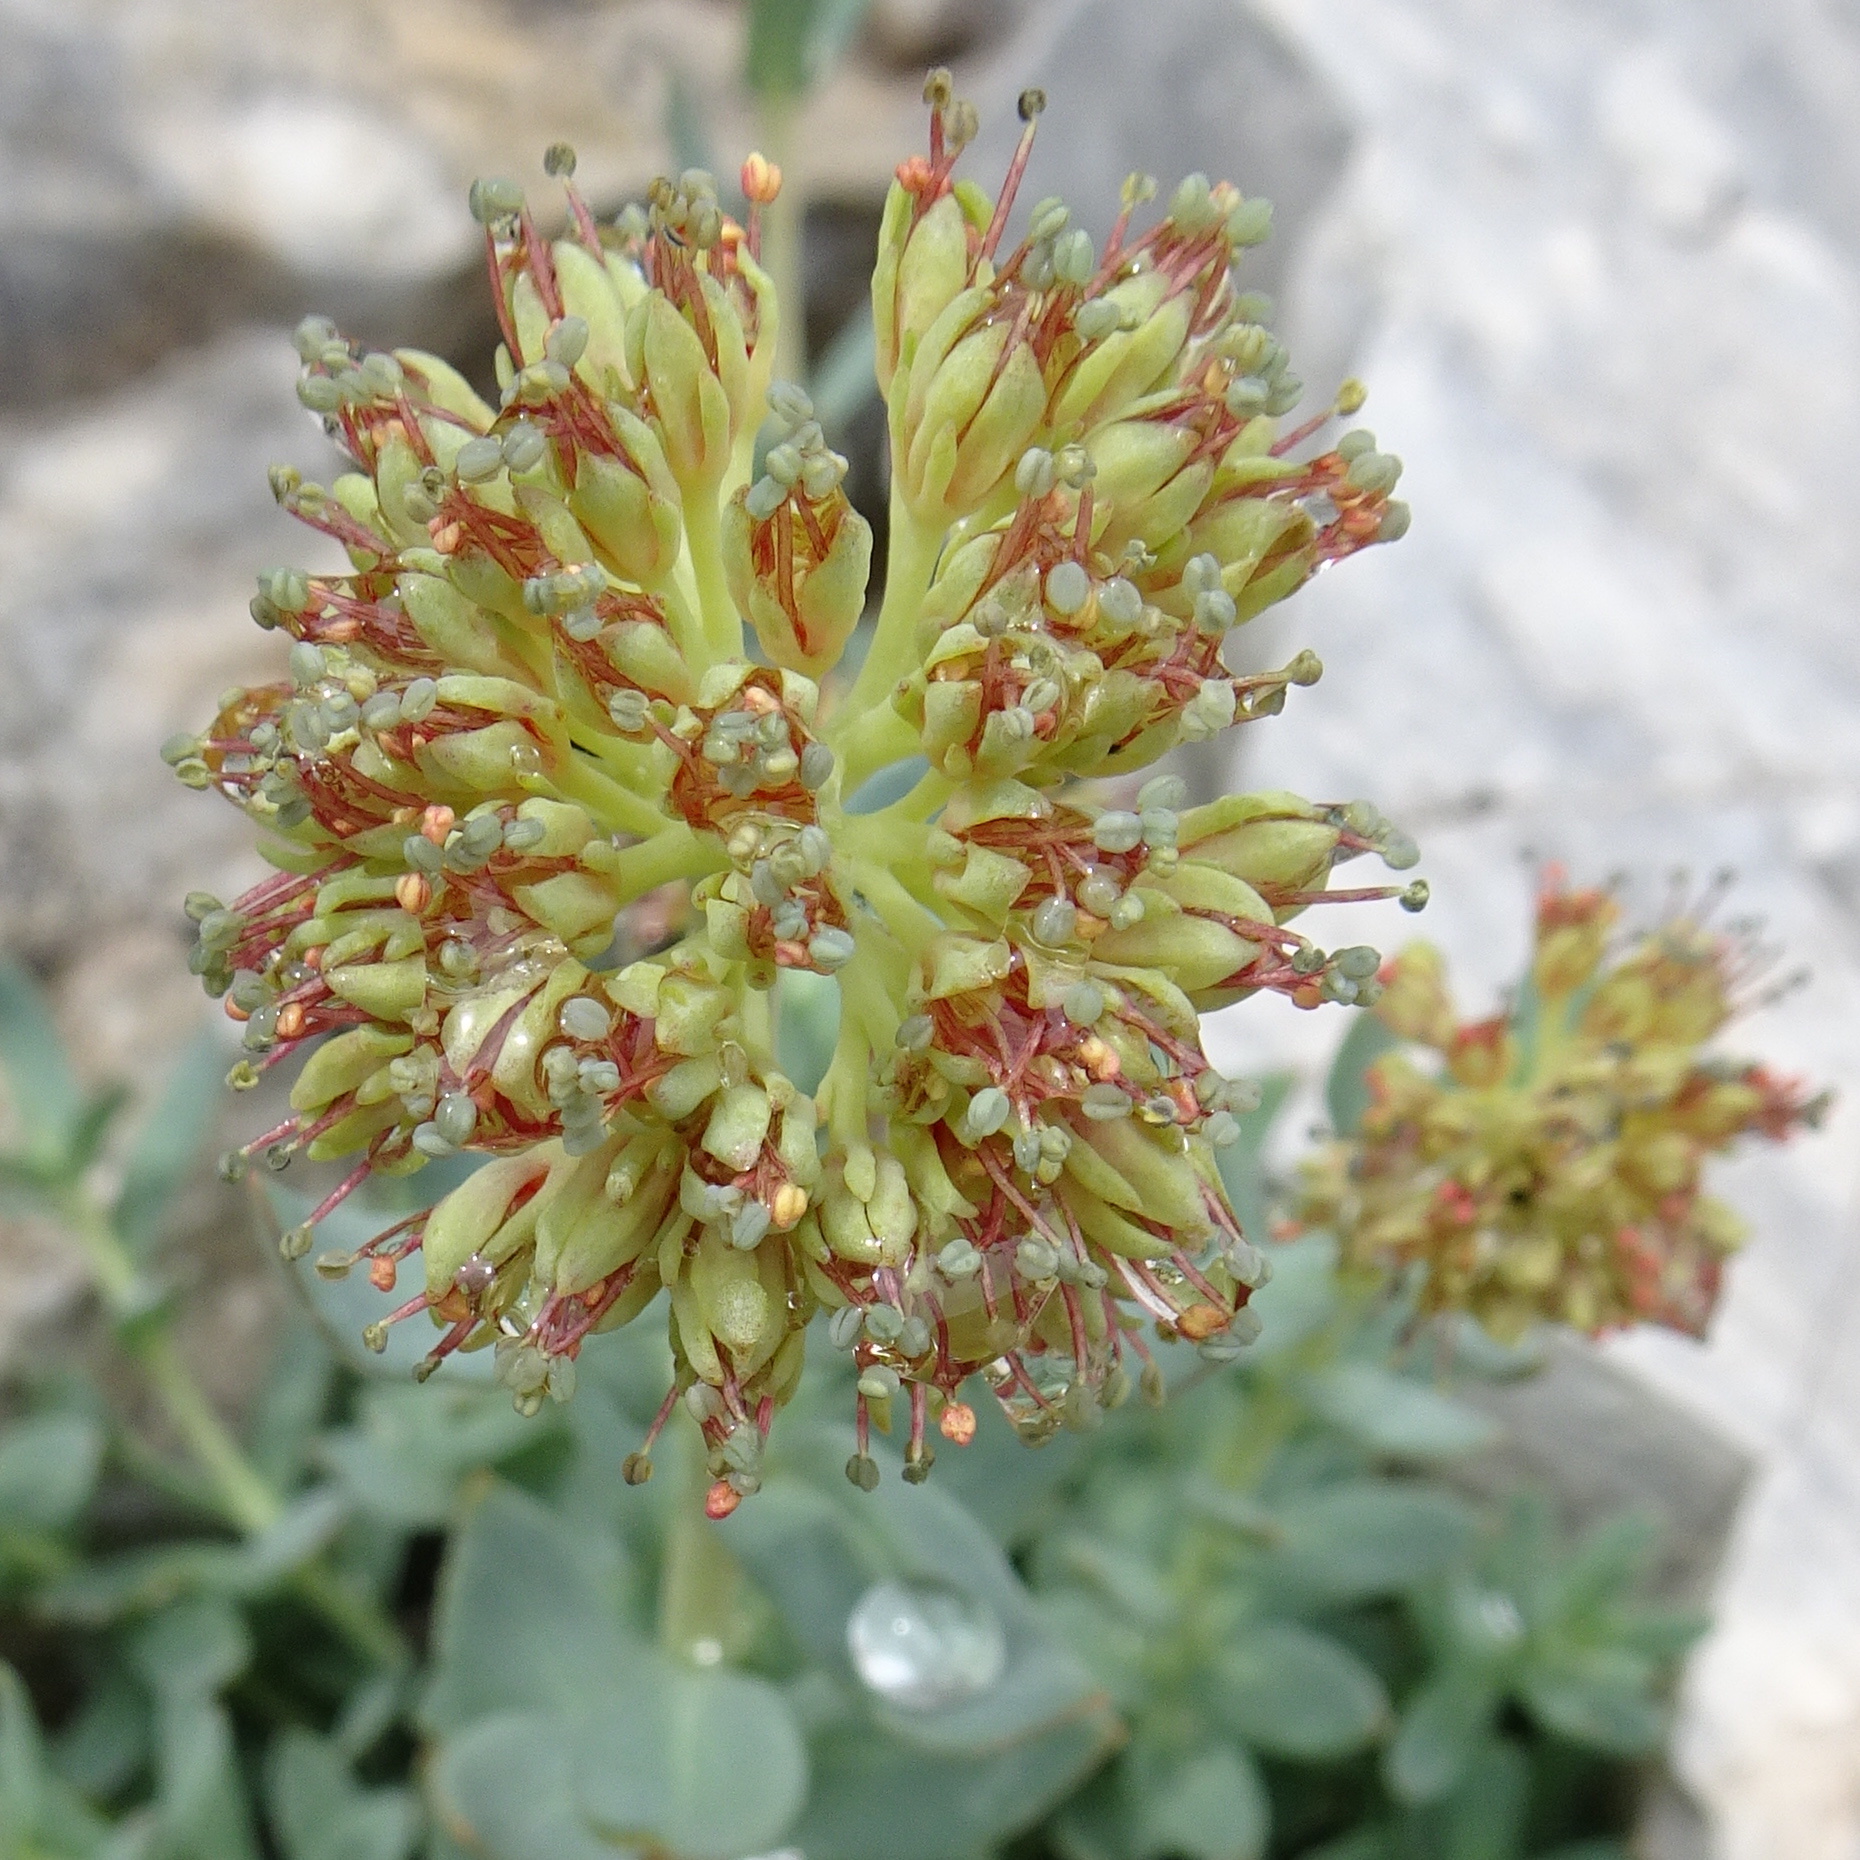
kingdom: Plantae
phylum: Tracheophyta
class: Magnoliopsida
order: Saxifragales
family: Crassulaceae
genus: Rhodiola
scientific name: Rhodiola heterodonta
